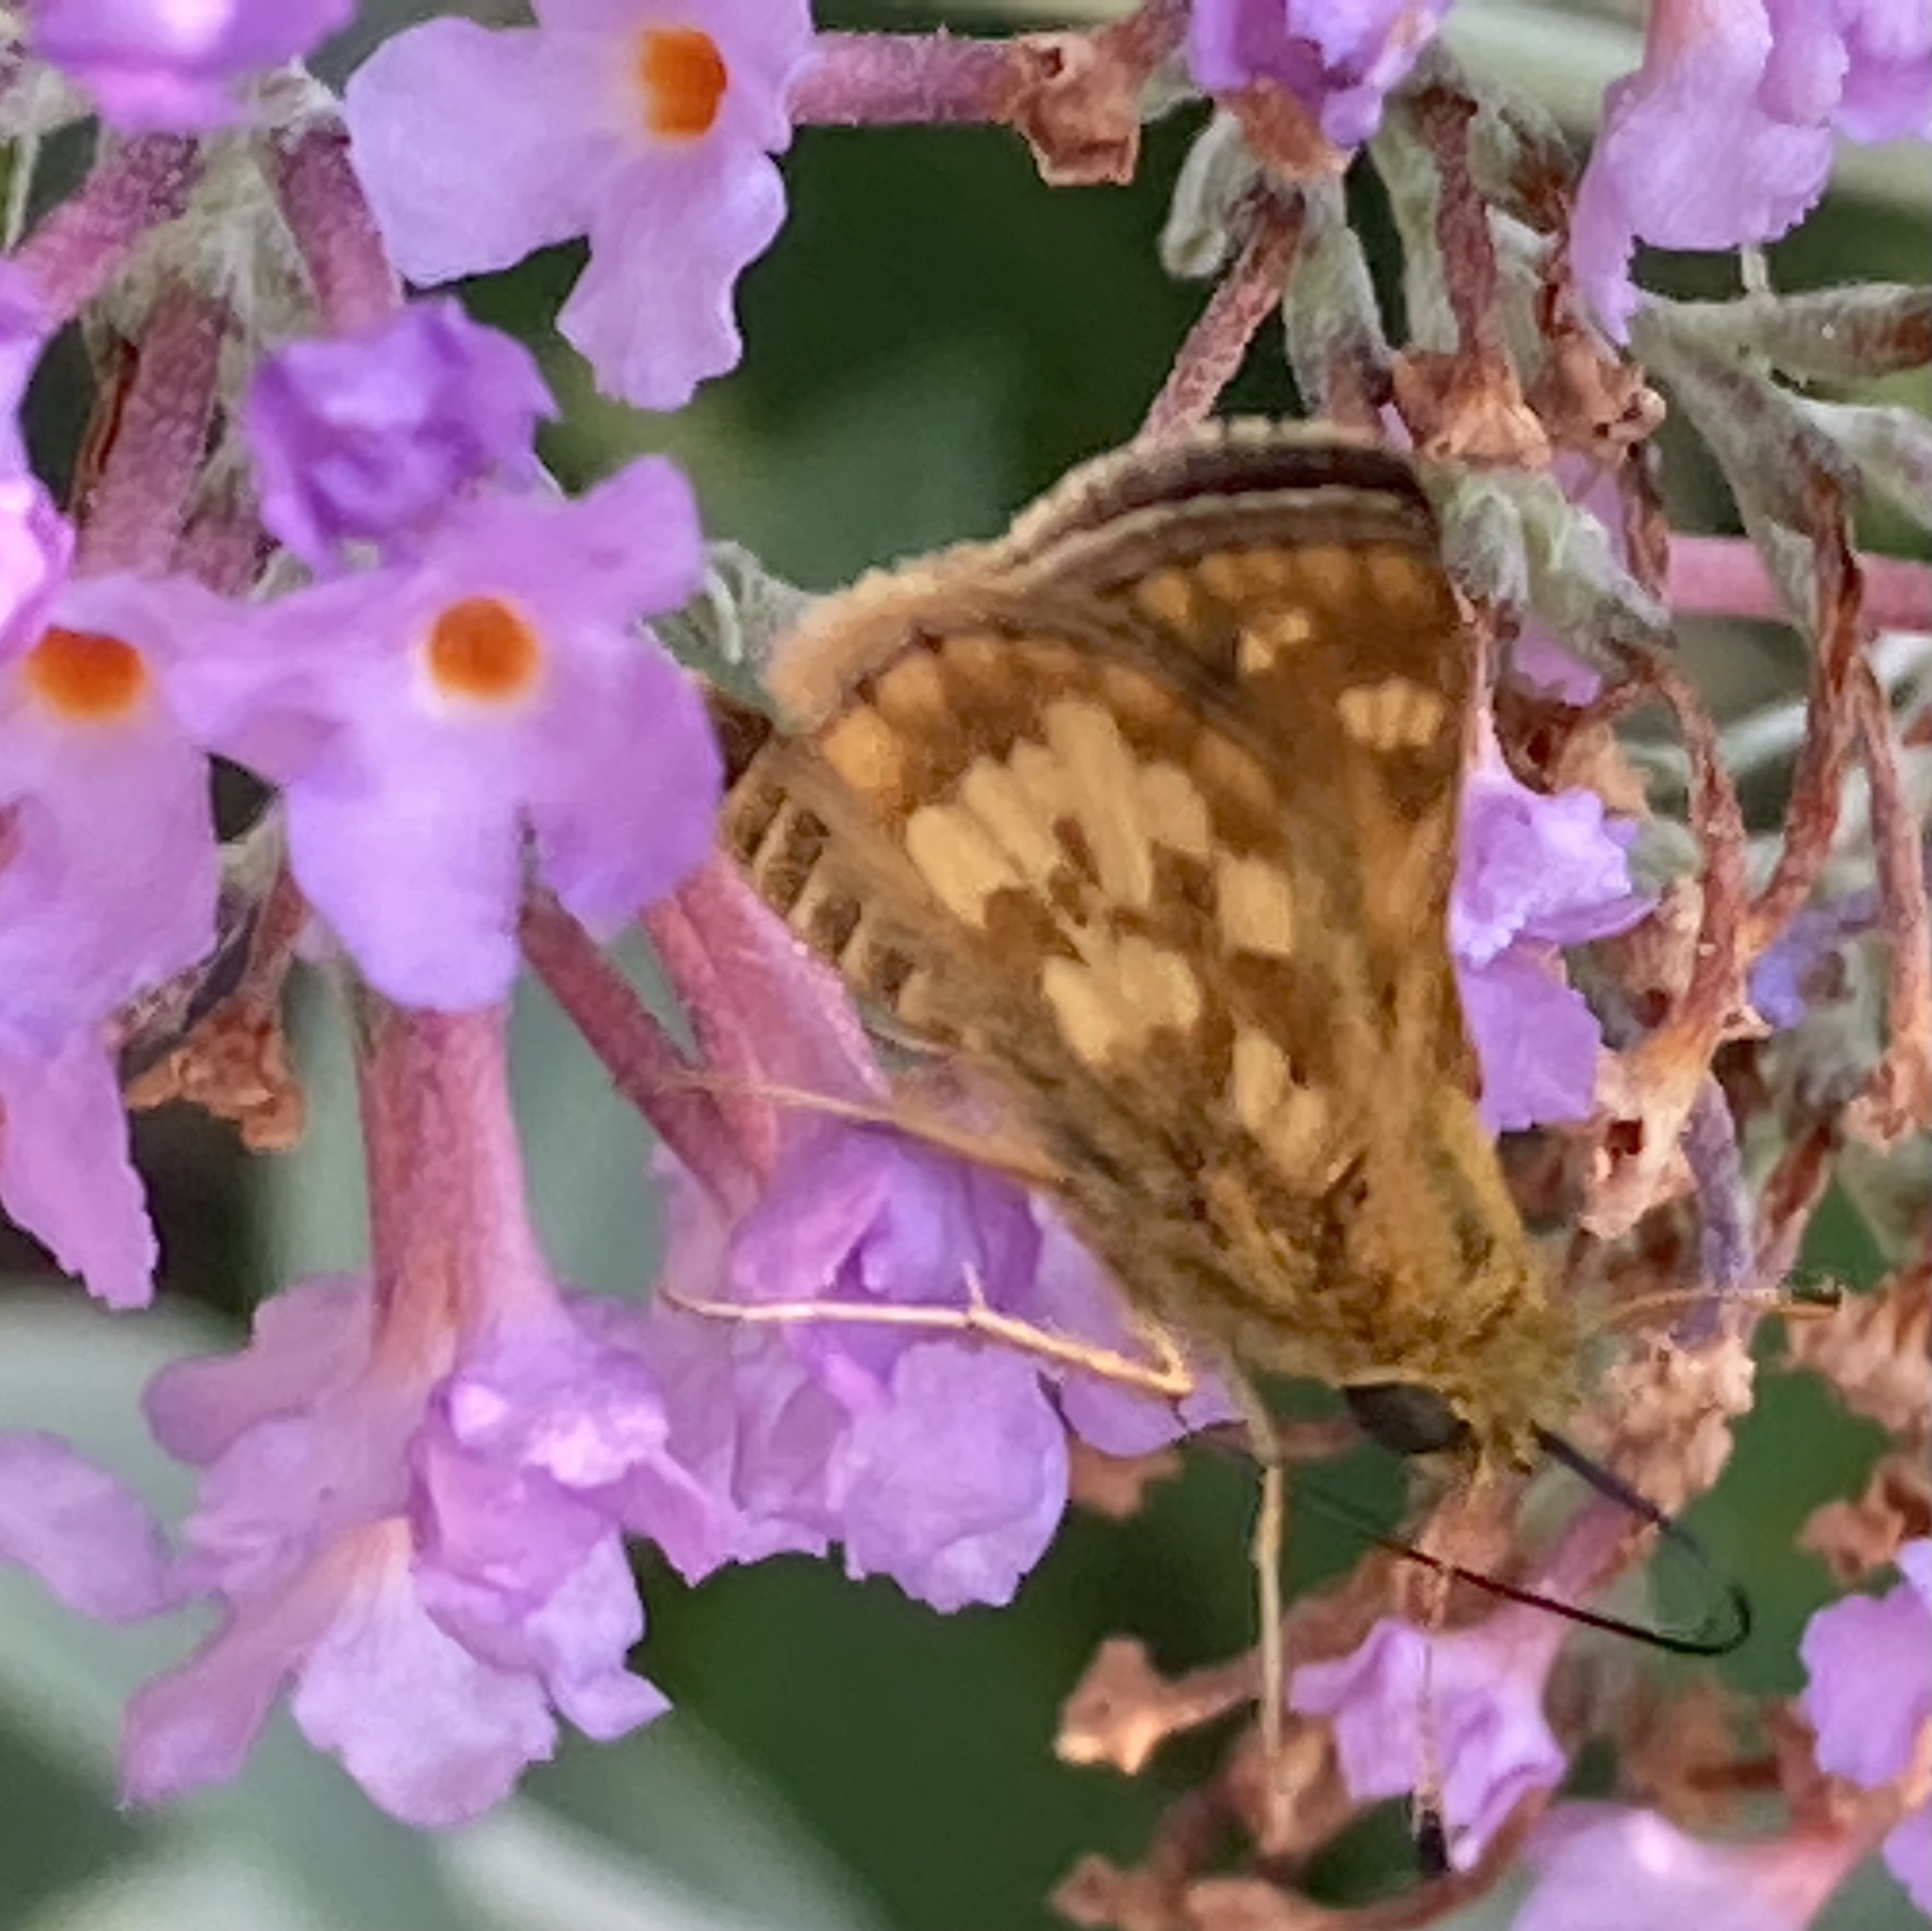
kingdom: Animalia
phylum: Arthropoda
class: Insecta
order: Lepidoptera
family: Hesperiidae
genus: Polites
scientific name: Polites coras
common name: Peck's skipper
